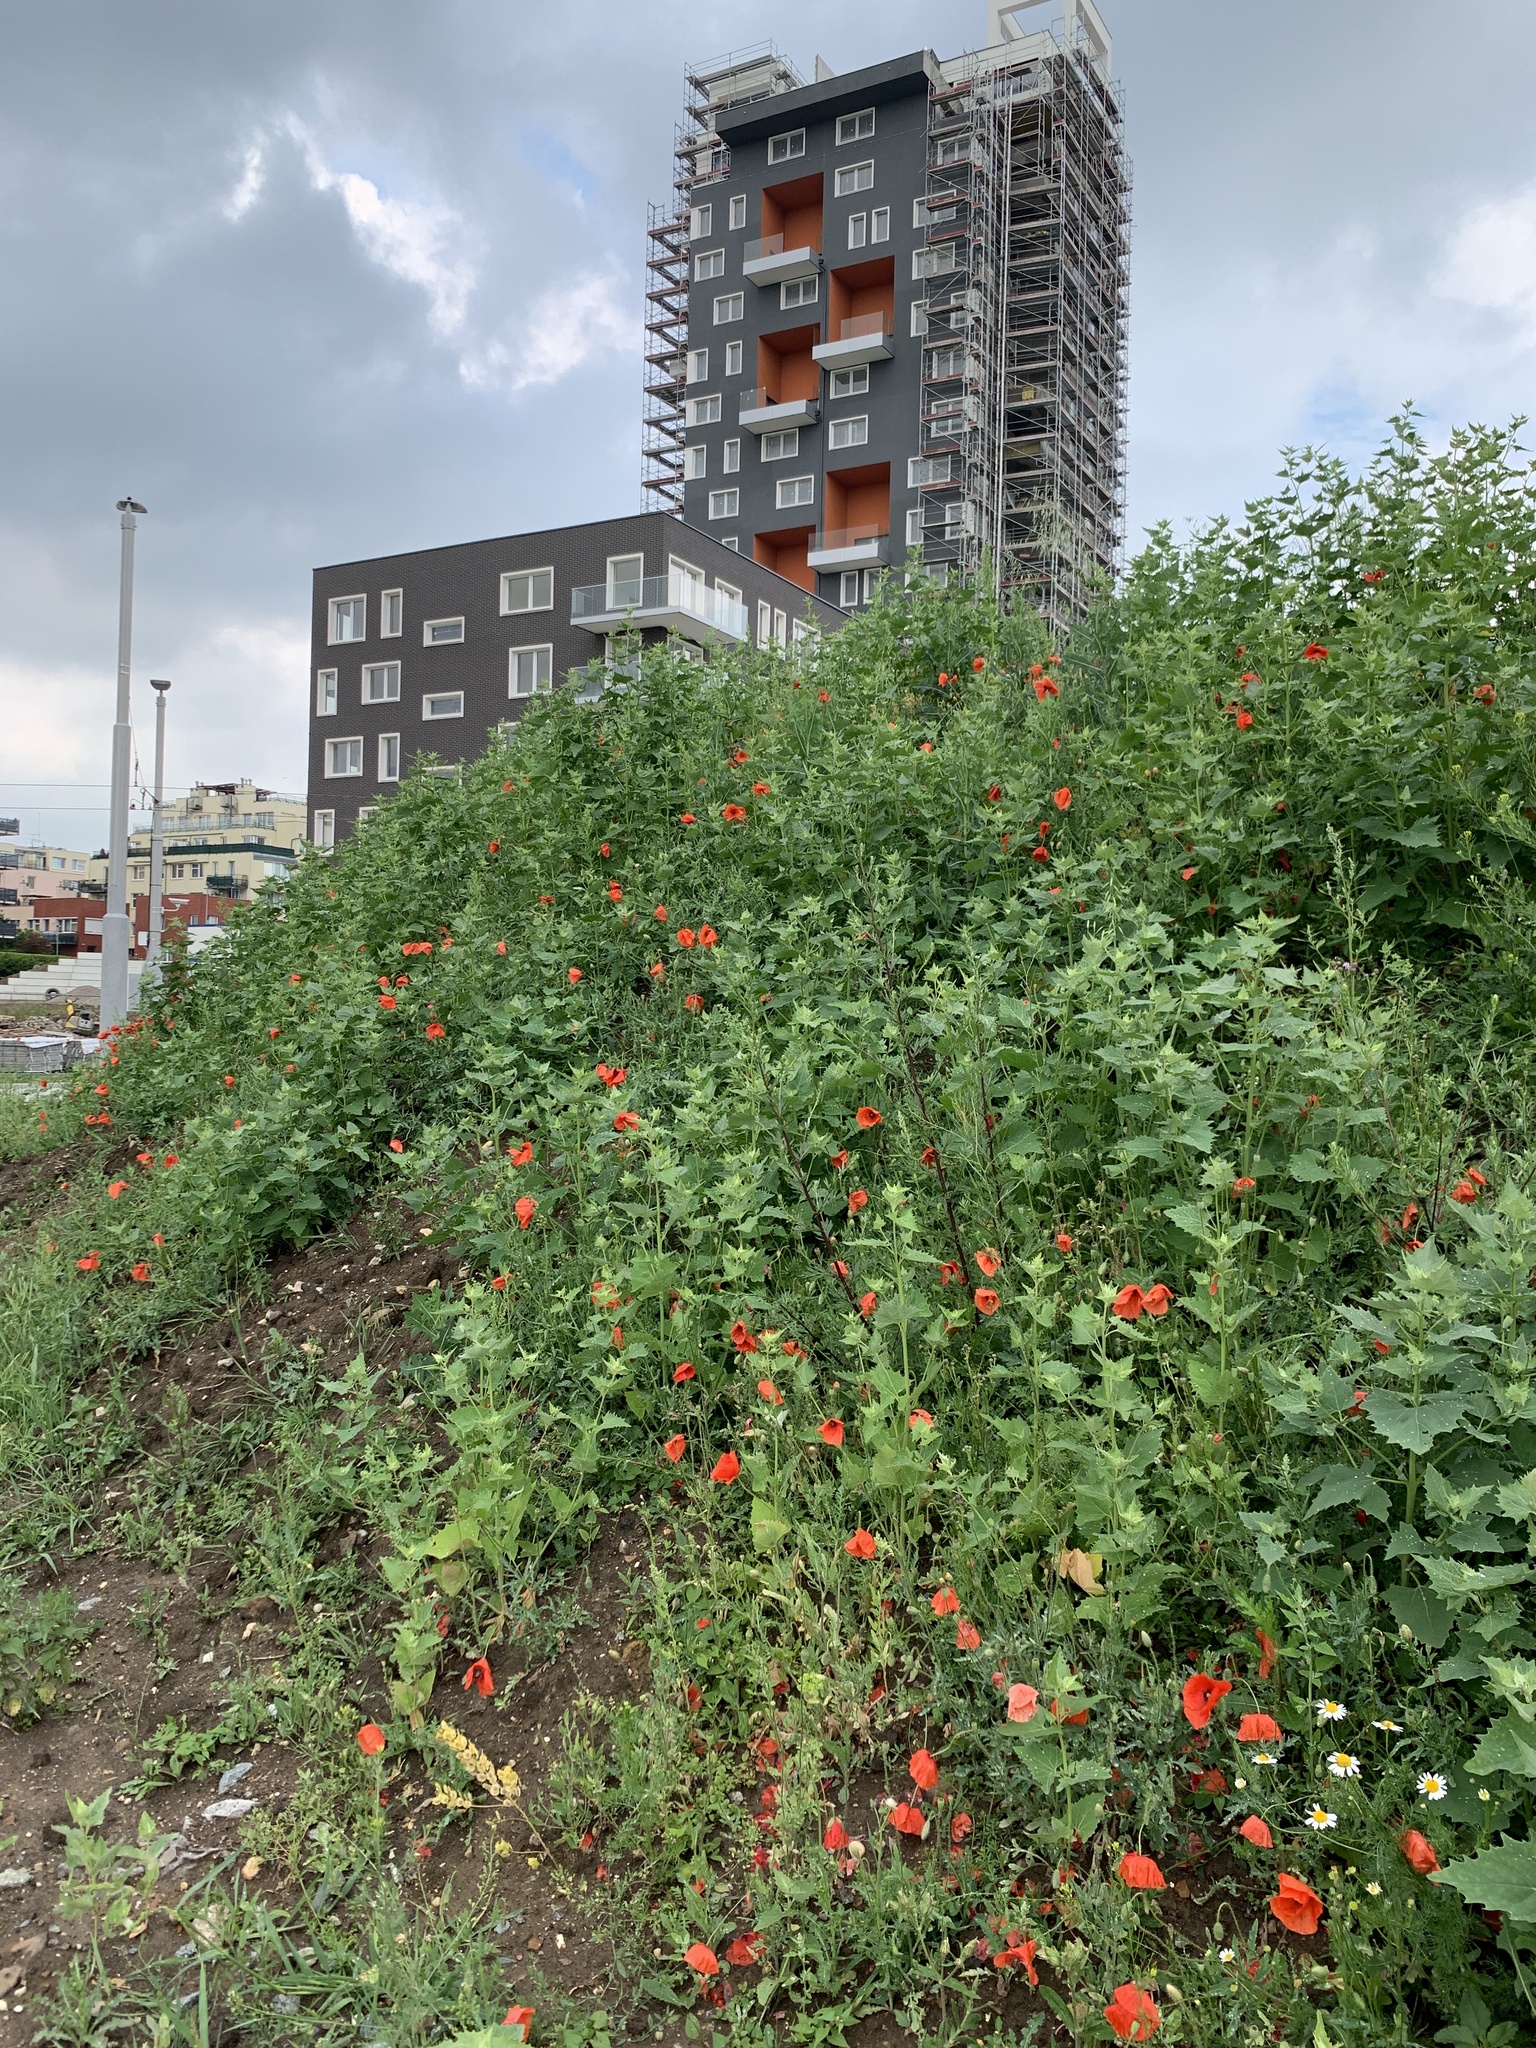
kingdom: Plantae
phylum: Tracheophyta
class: Magnoliopsida
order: Ranunculales
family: Papaveraceae
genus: Papaver
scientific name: Papaver rhoeas
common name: Corn poppy
